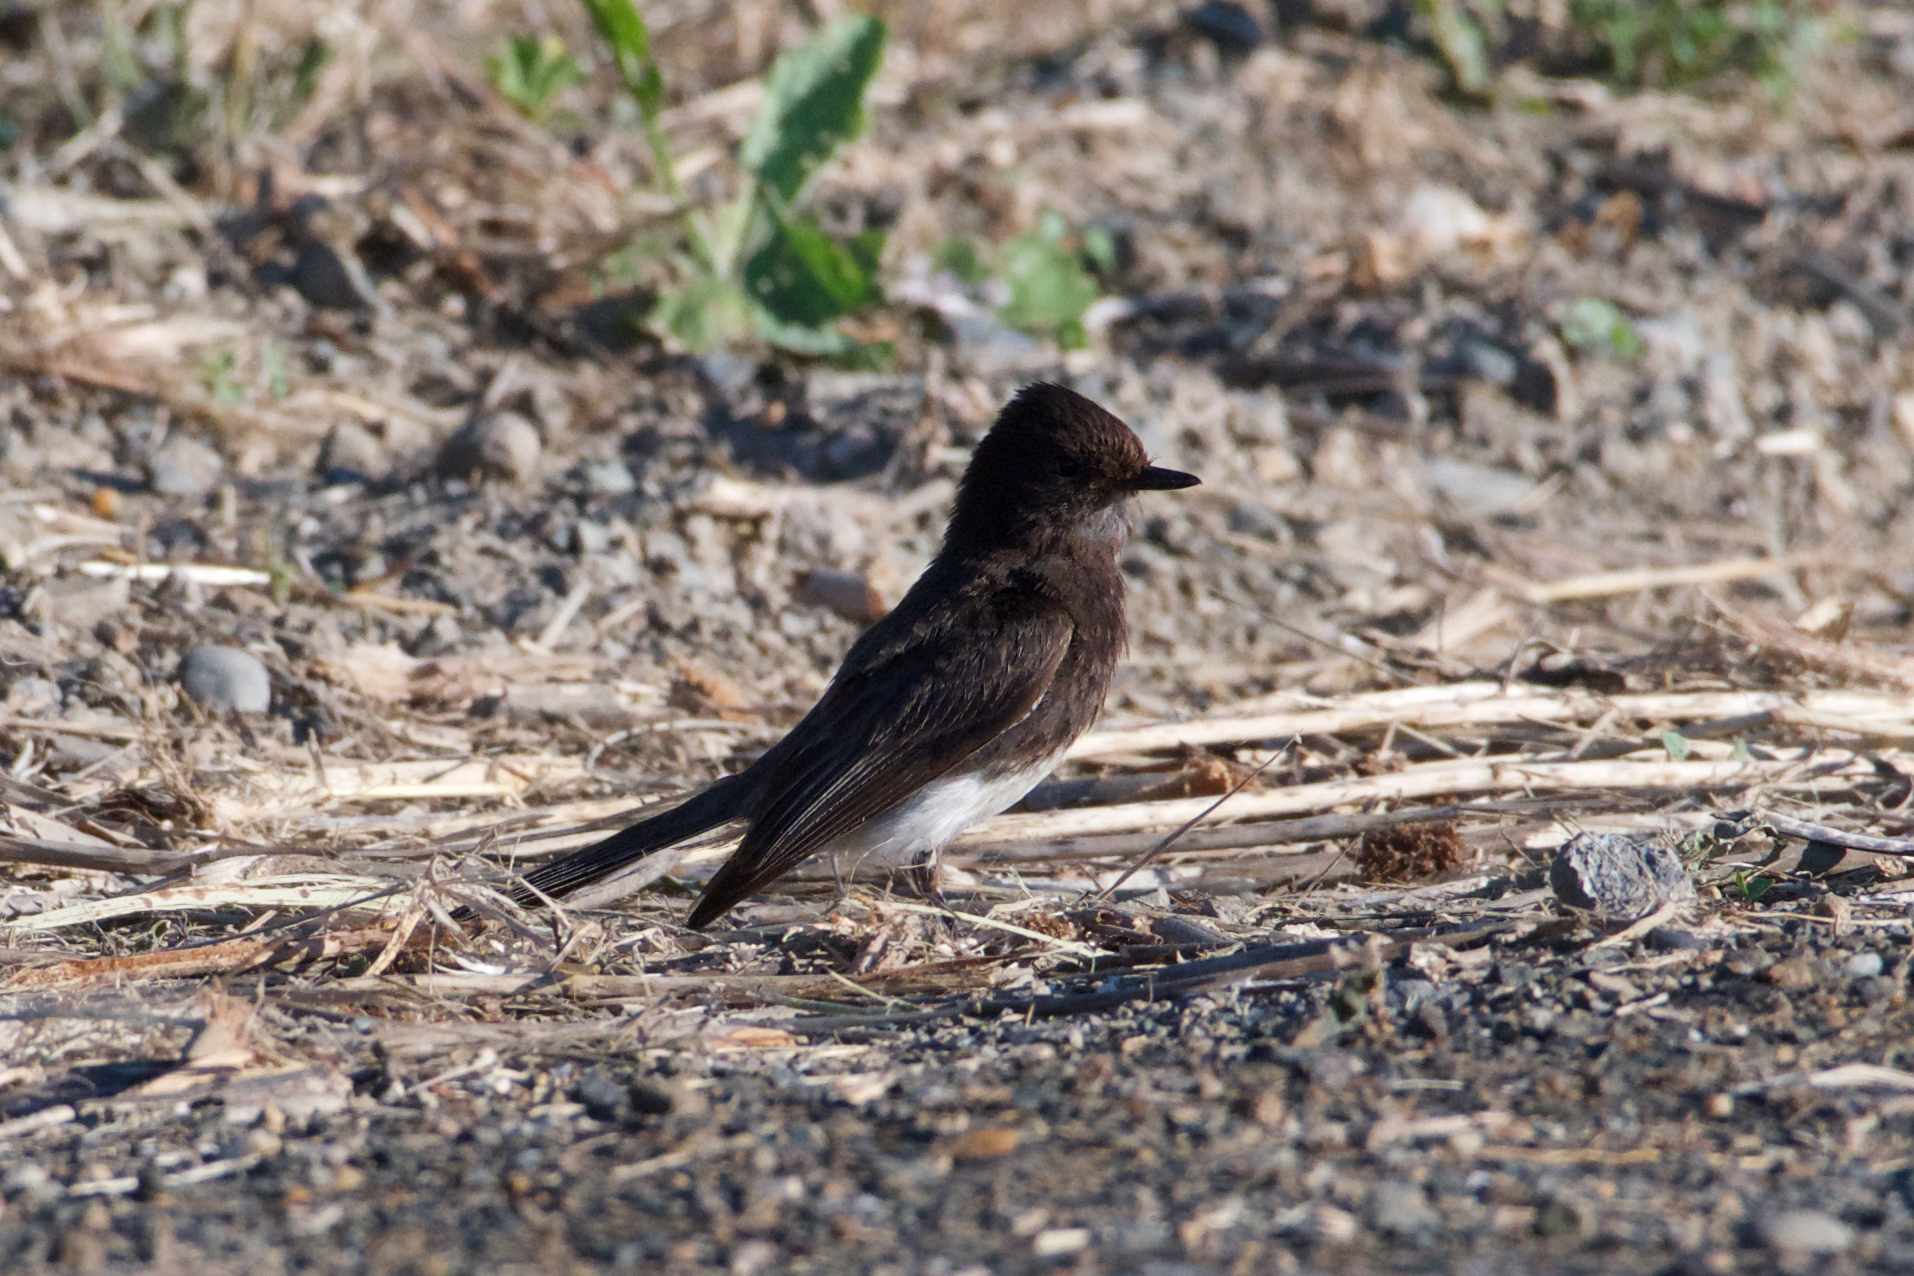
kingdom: Animalia
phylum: Chordata
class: Aves
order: Passeriformes
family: Tyrannidae
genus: Sayornis
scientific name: Sayornis nigricans
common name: Black phoebe
